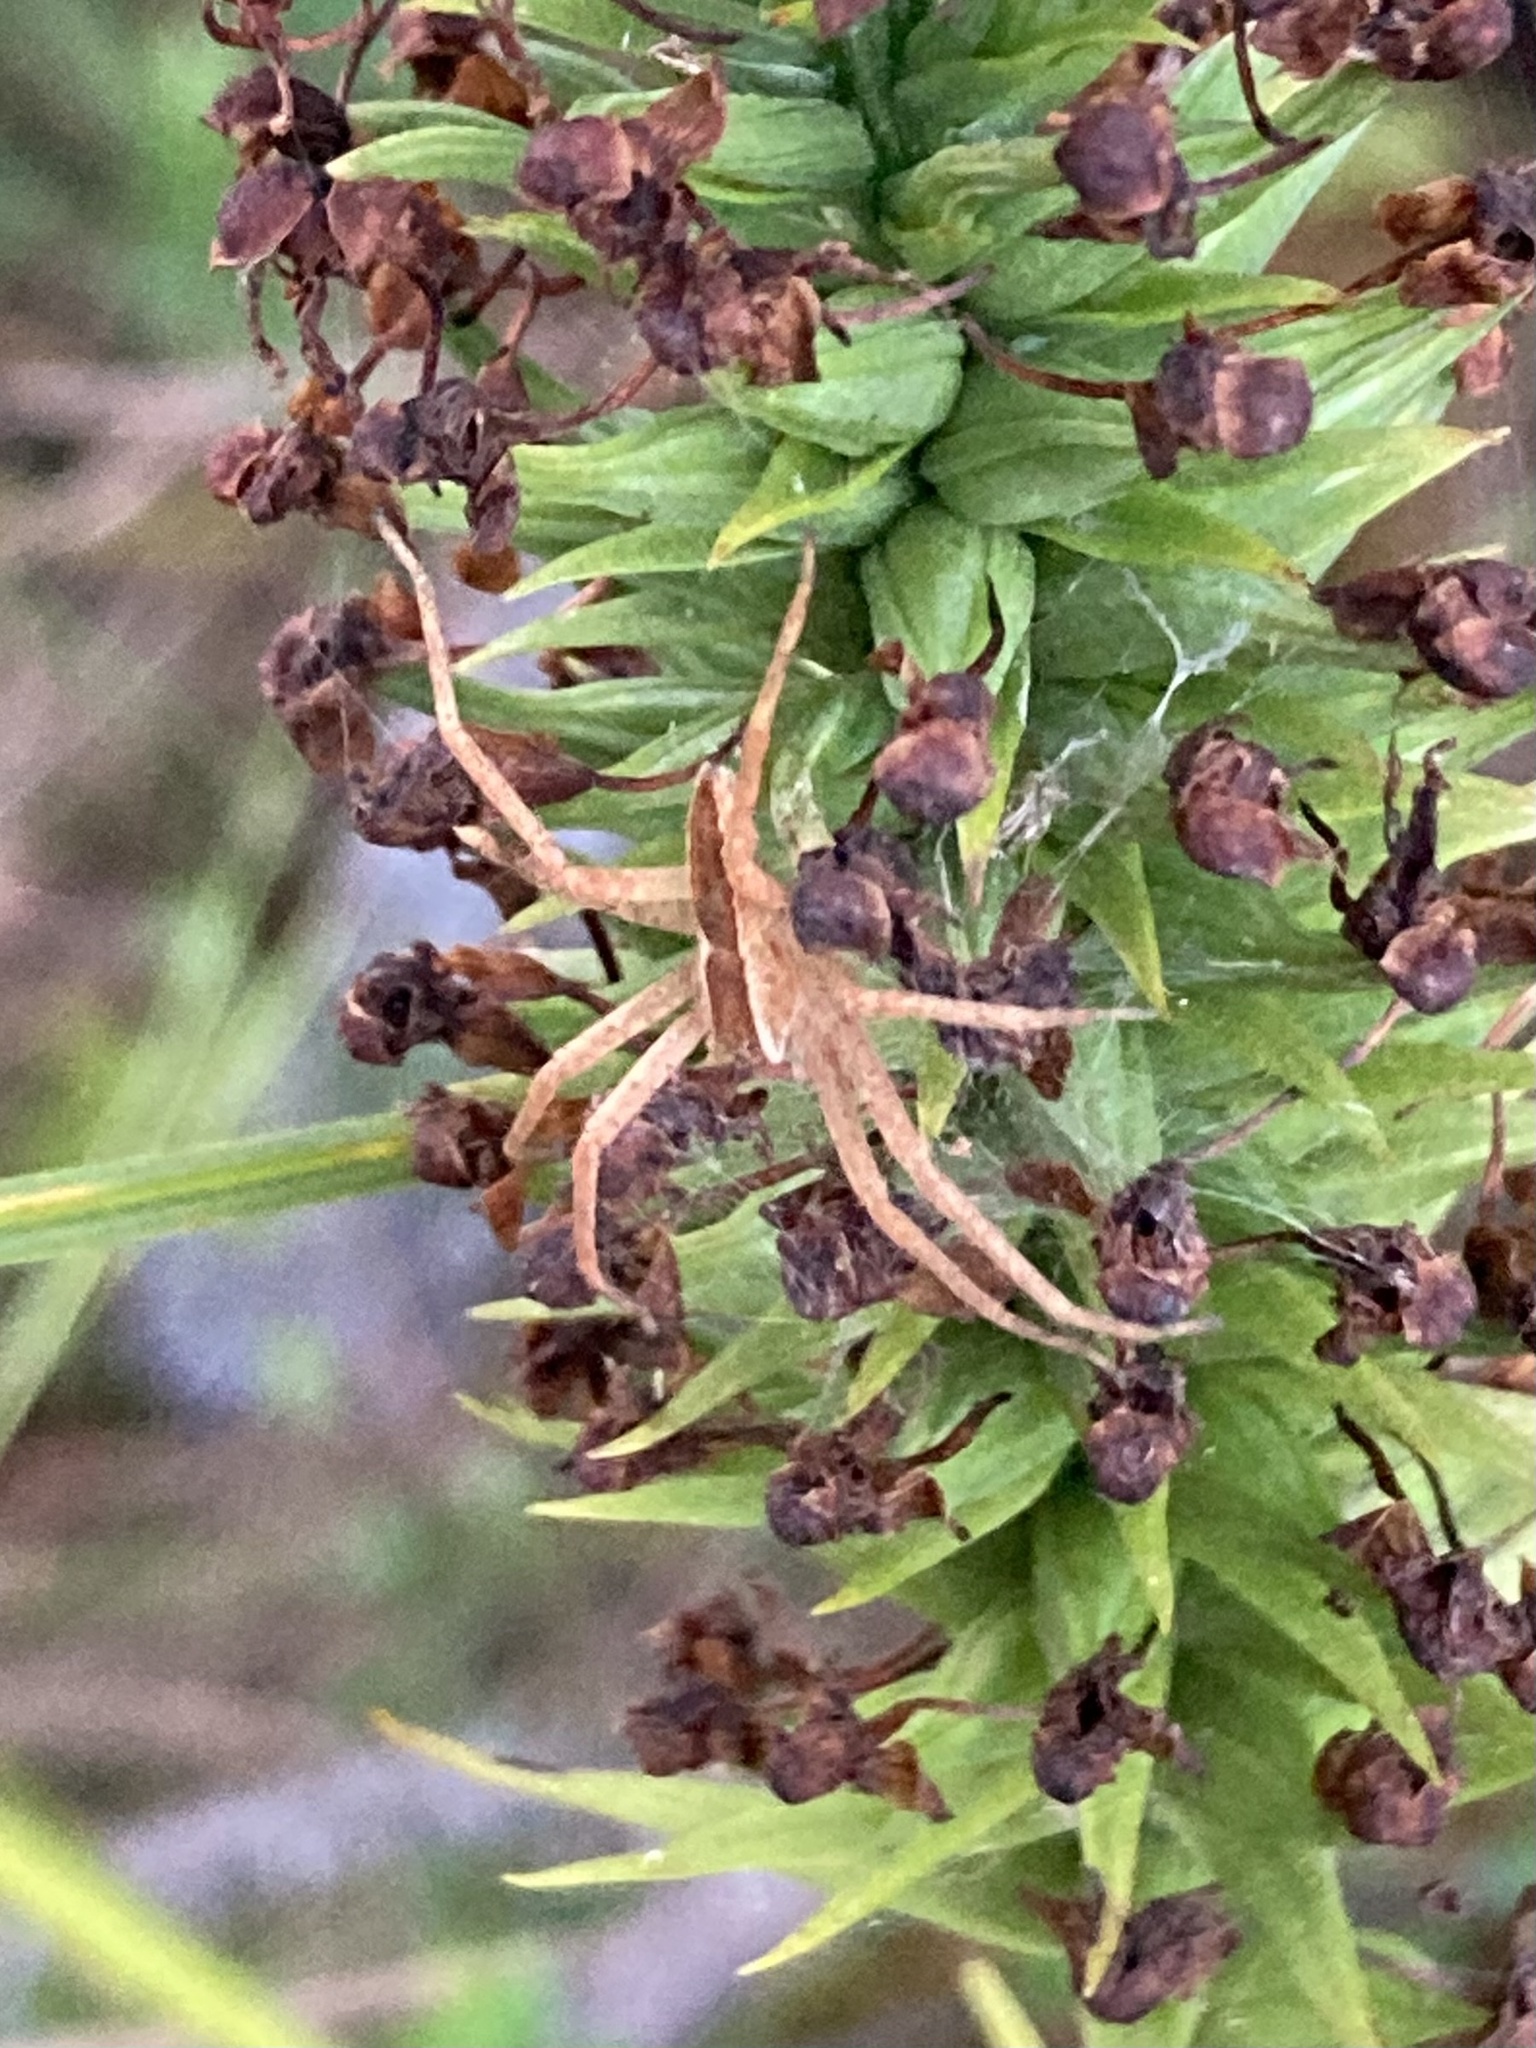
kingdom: Animalia
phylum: Arthropoda
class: Arachnida
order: Araneae
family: Pisauridae
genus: Pisaurina
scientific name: Pisaurina mira
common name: American nursery web spider
